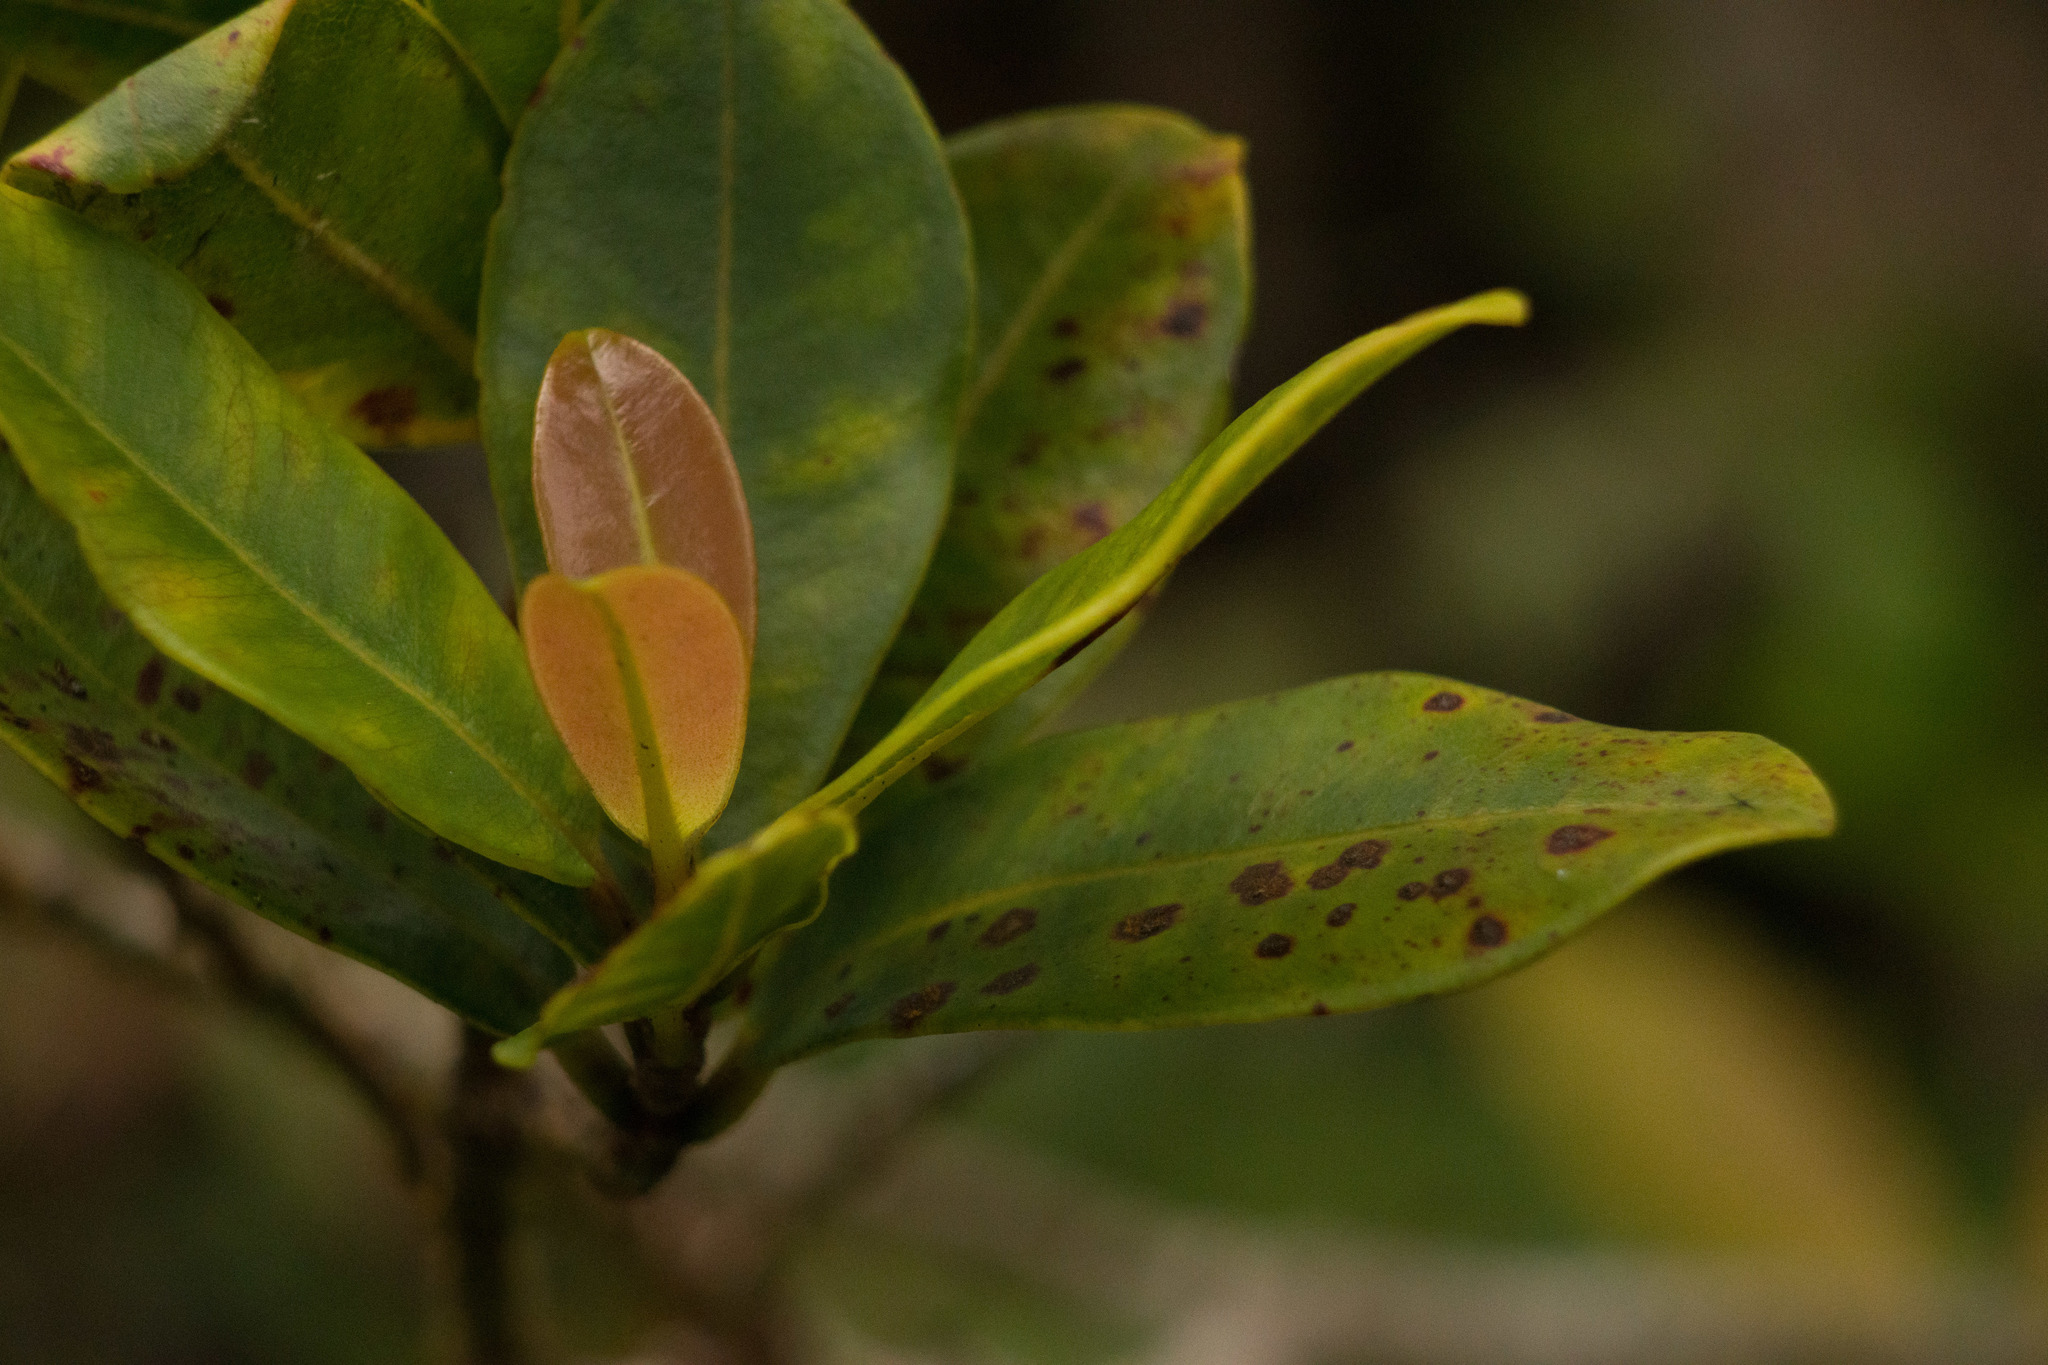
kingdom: Plantae
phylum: Tracheophyta
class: Magnoliopsida
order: Myrtales
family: Myrtaceae
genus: Syzygium
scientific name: Syzygium sandwicense
